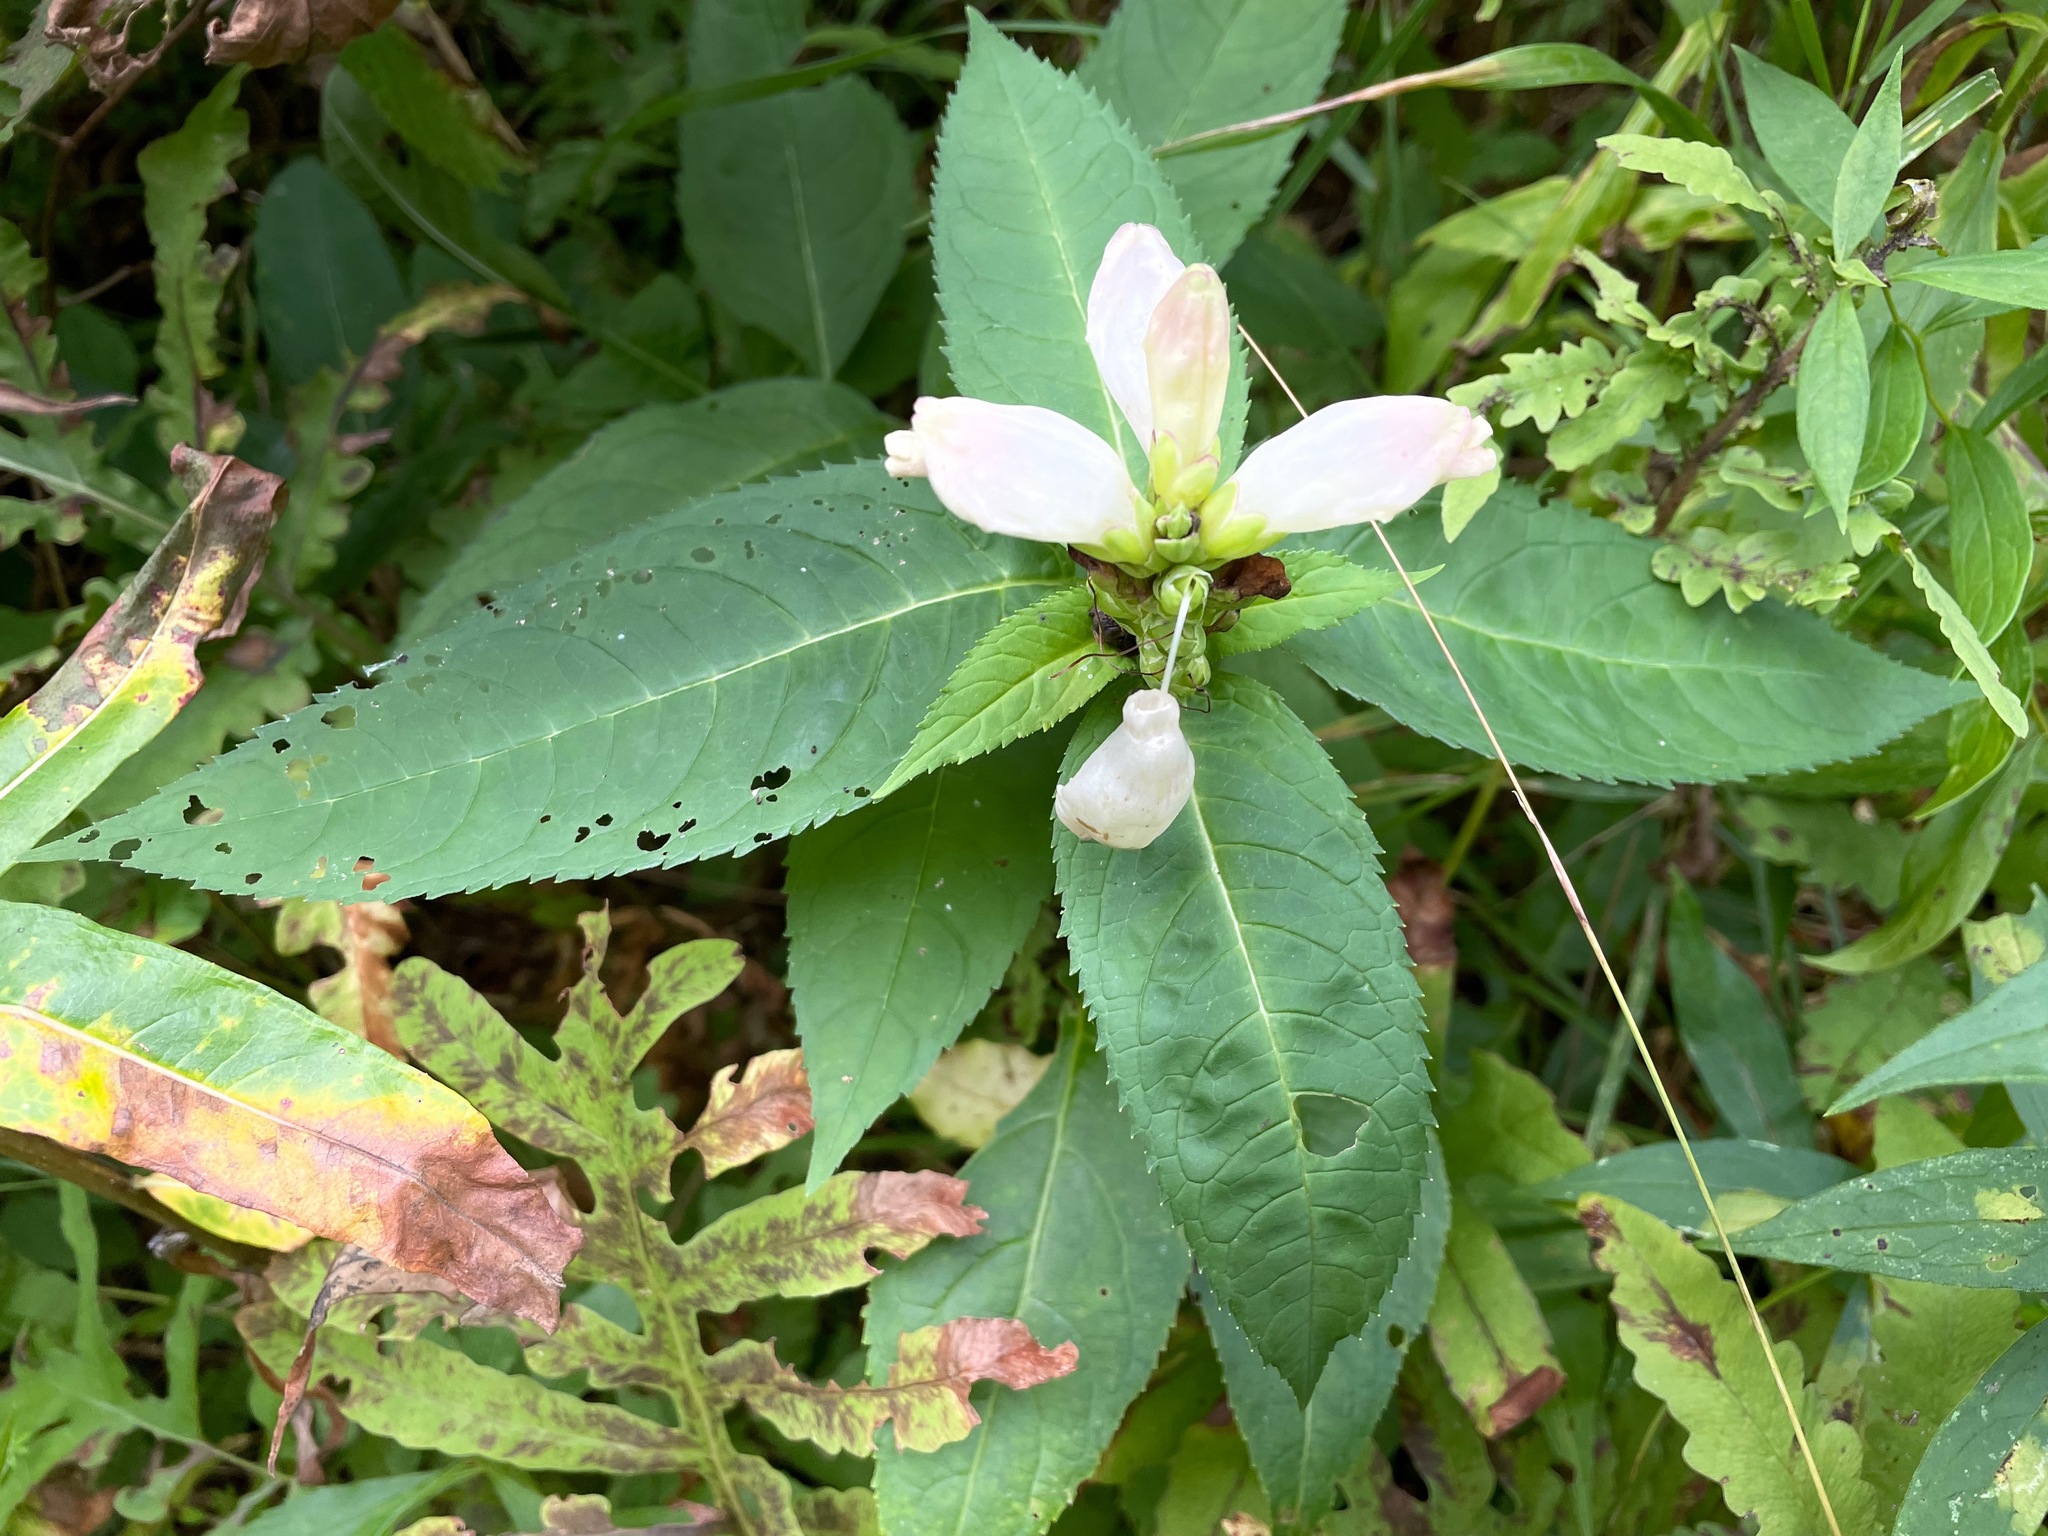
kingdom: Plantae
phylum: Tracheophyta
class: Magnoliopsida
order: Lamiales
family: Plantaginaceae
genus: Chelone
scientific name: Chelone glabra
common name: Snakehead
